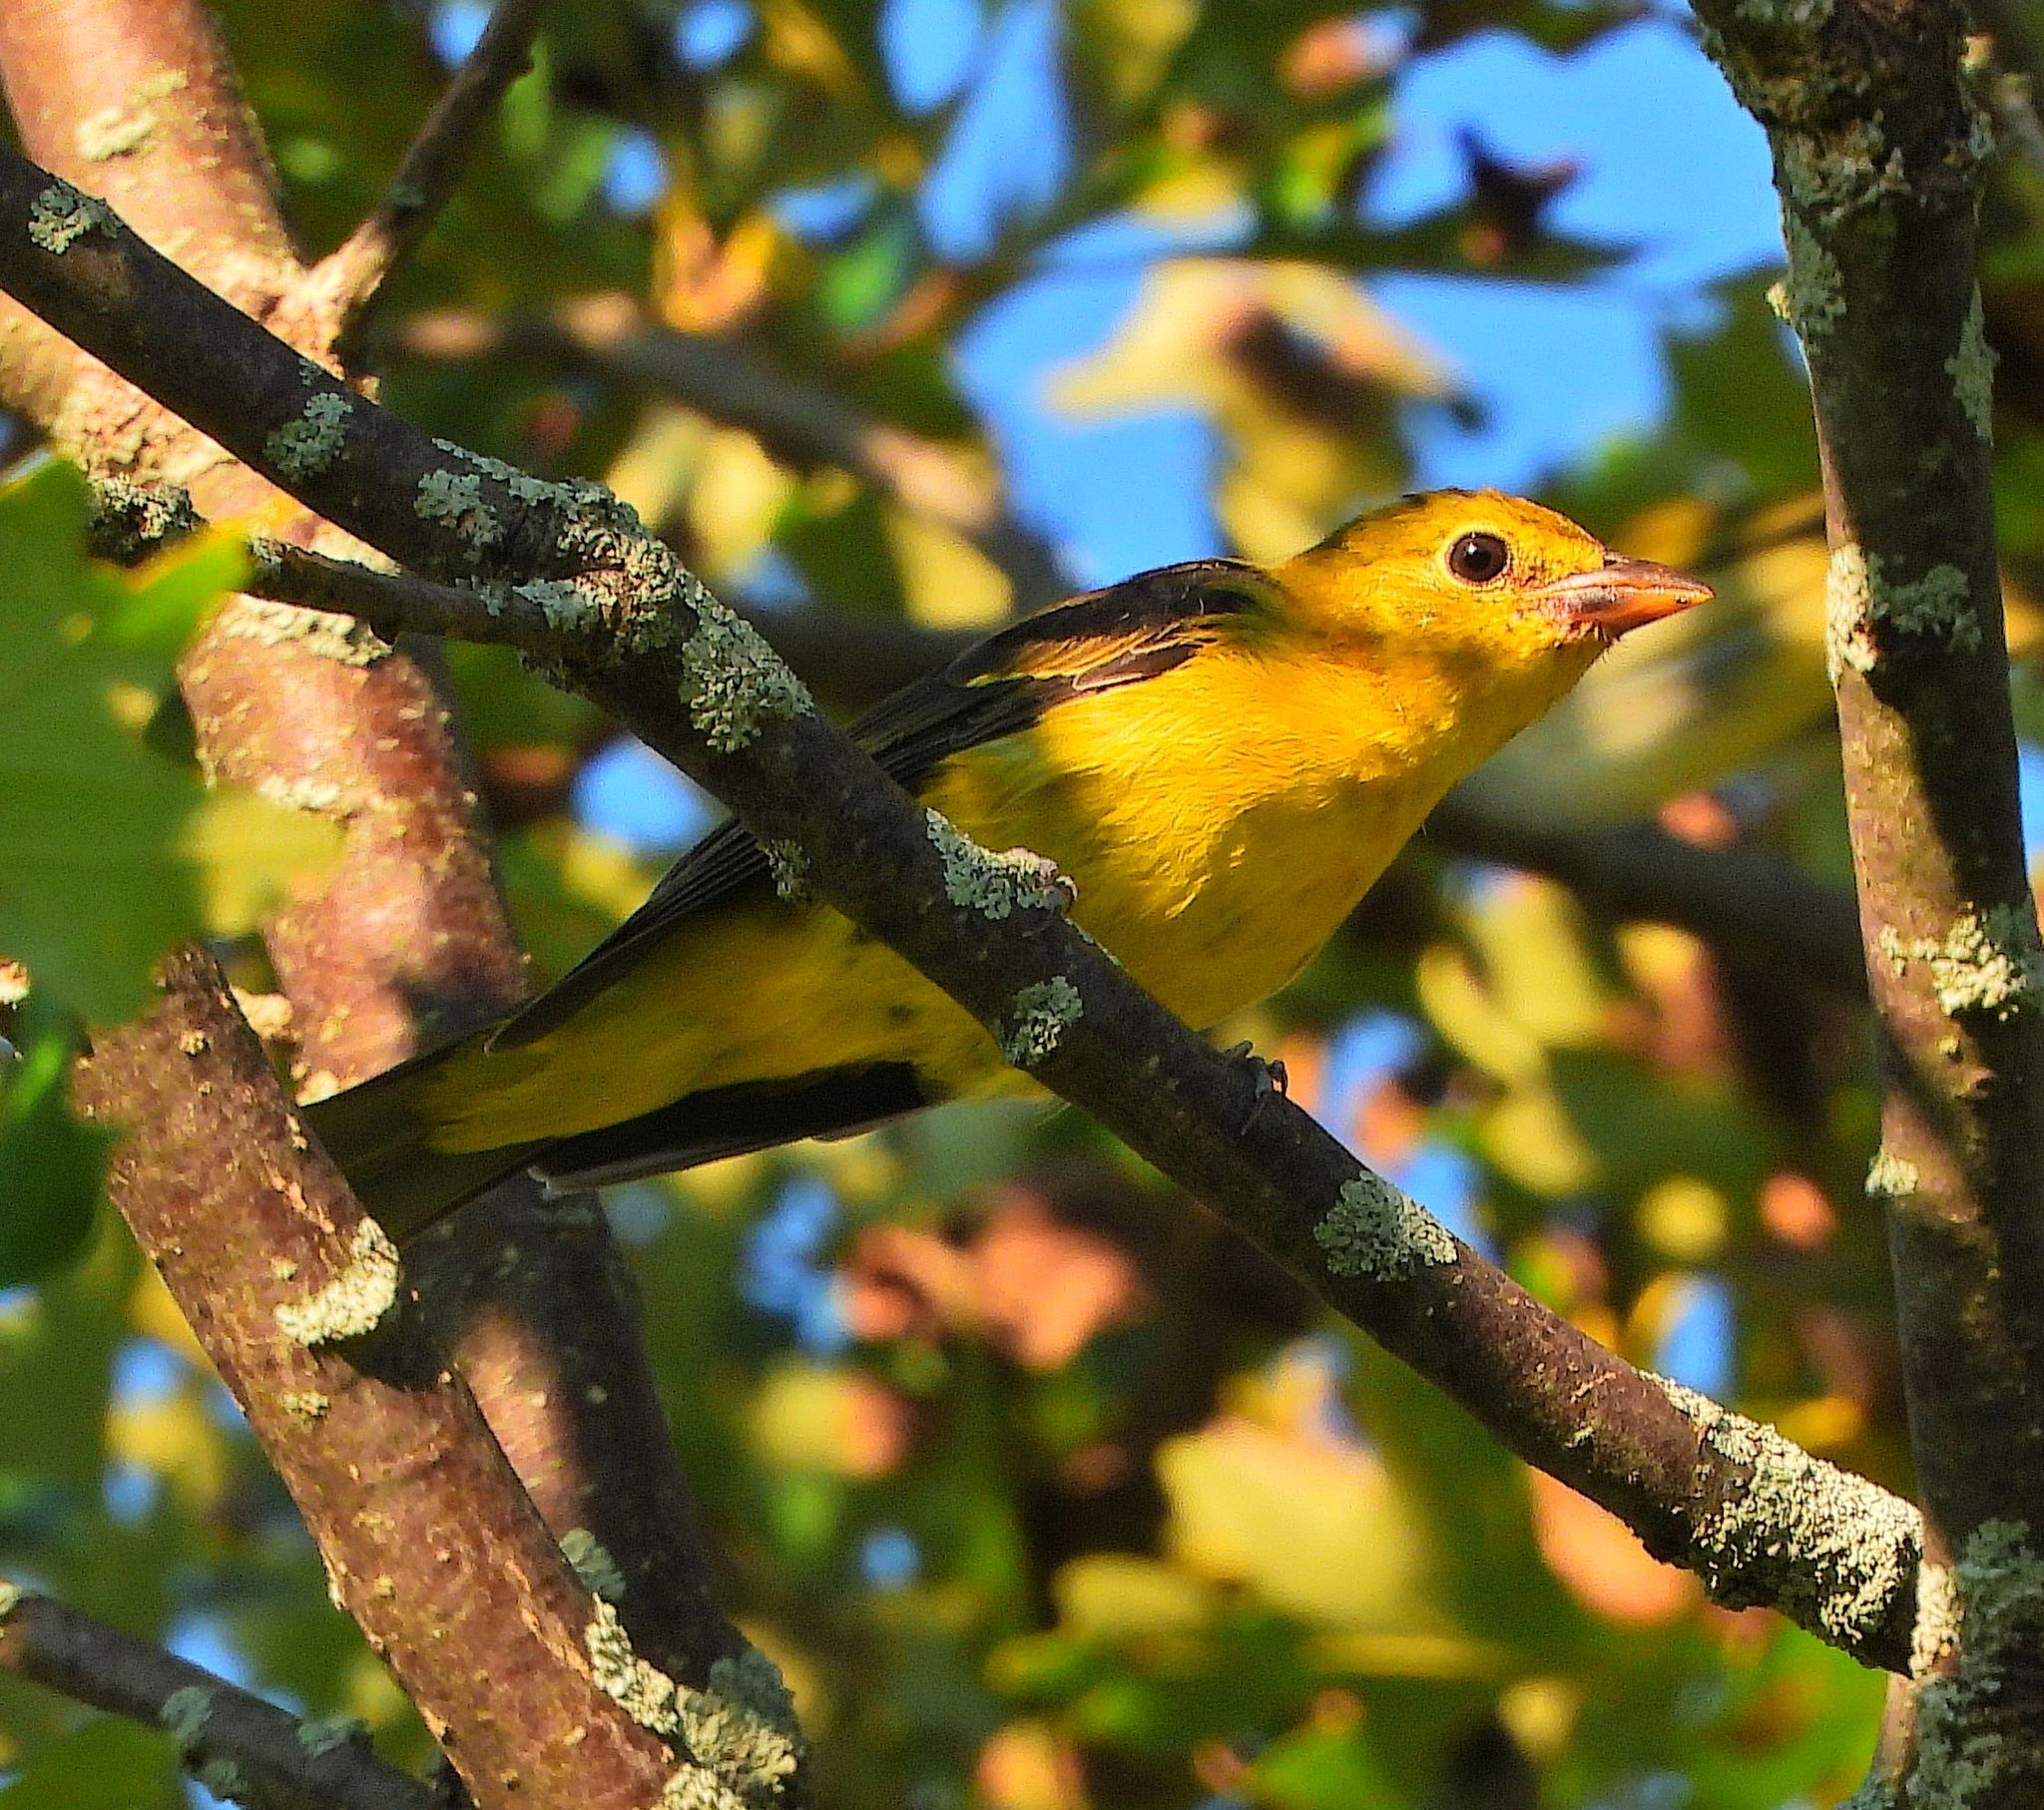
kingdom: Animalia
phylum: Chordata
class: Aves
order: Passeriformes
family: Cardinalidae
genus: Piranga
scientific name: Piranga olivacea
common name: Scarlet tanager
